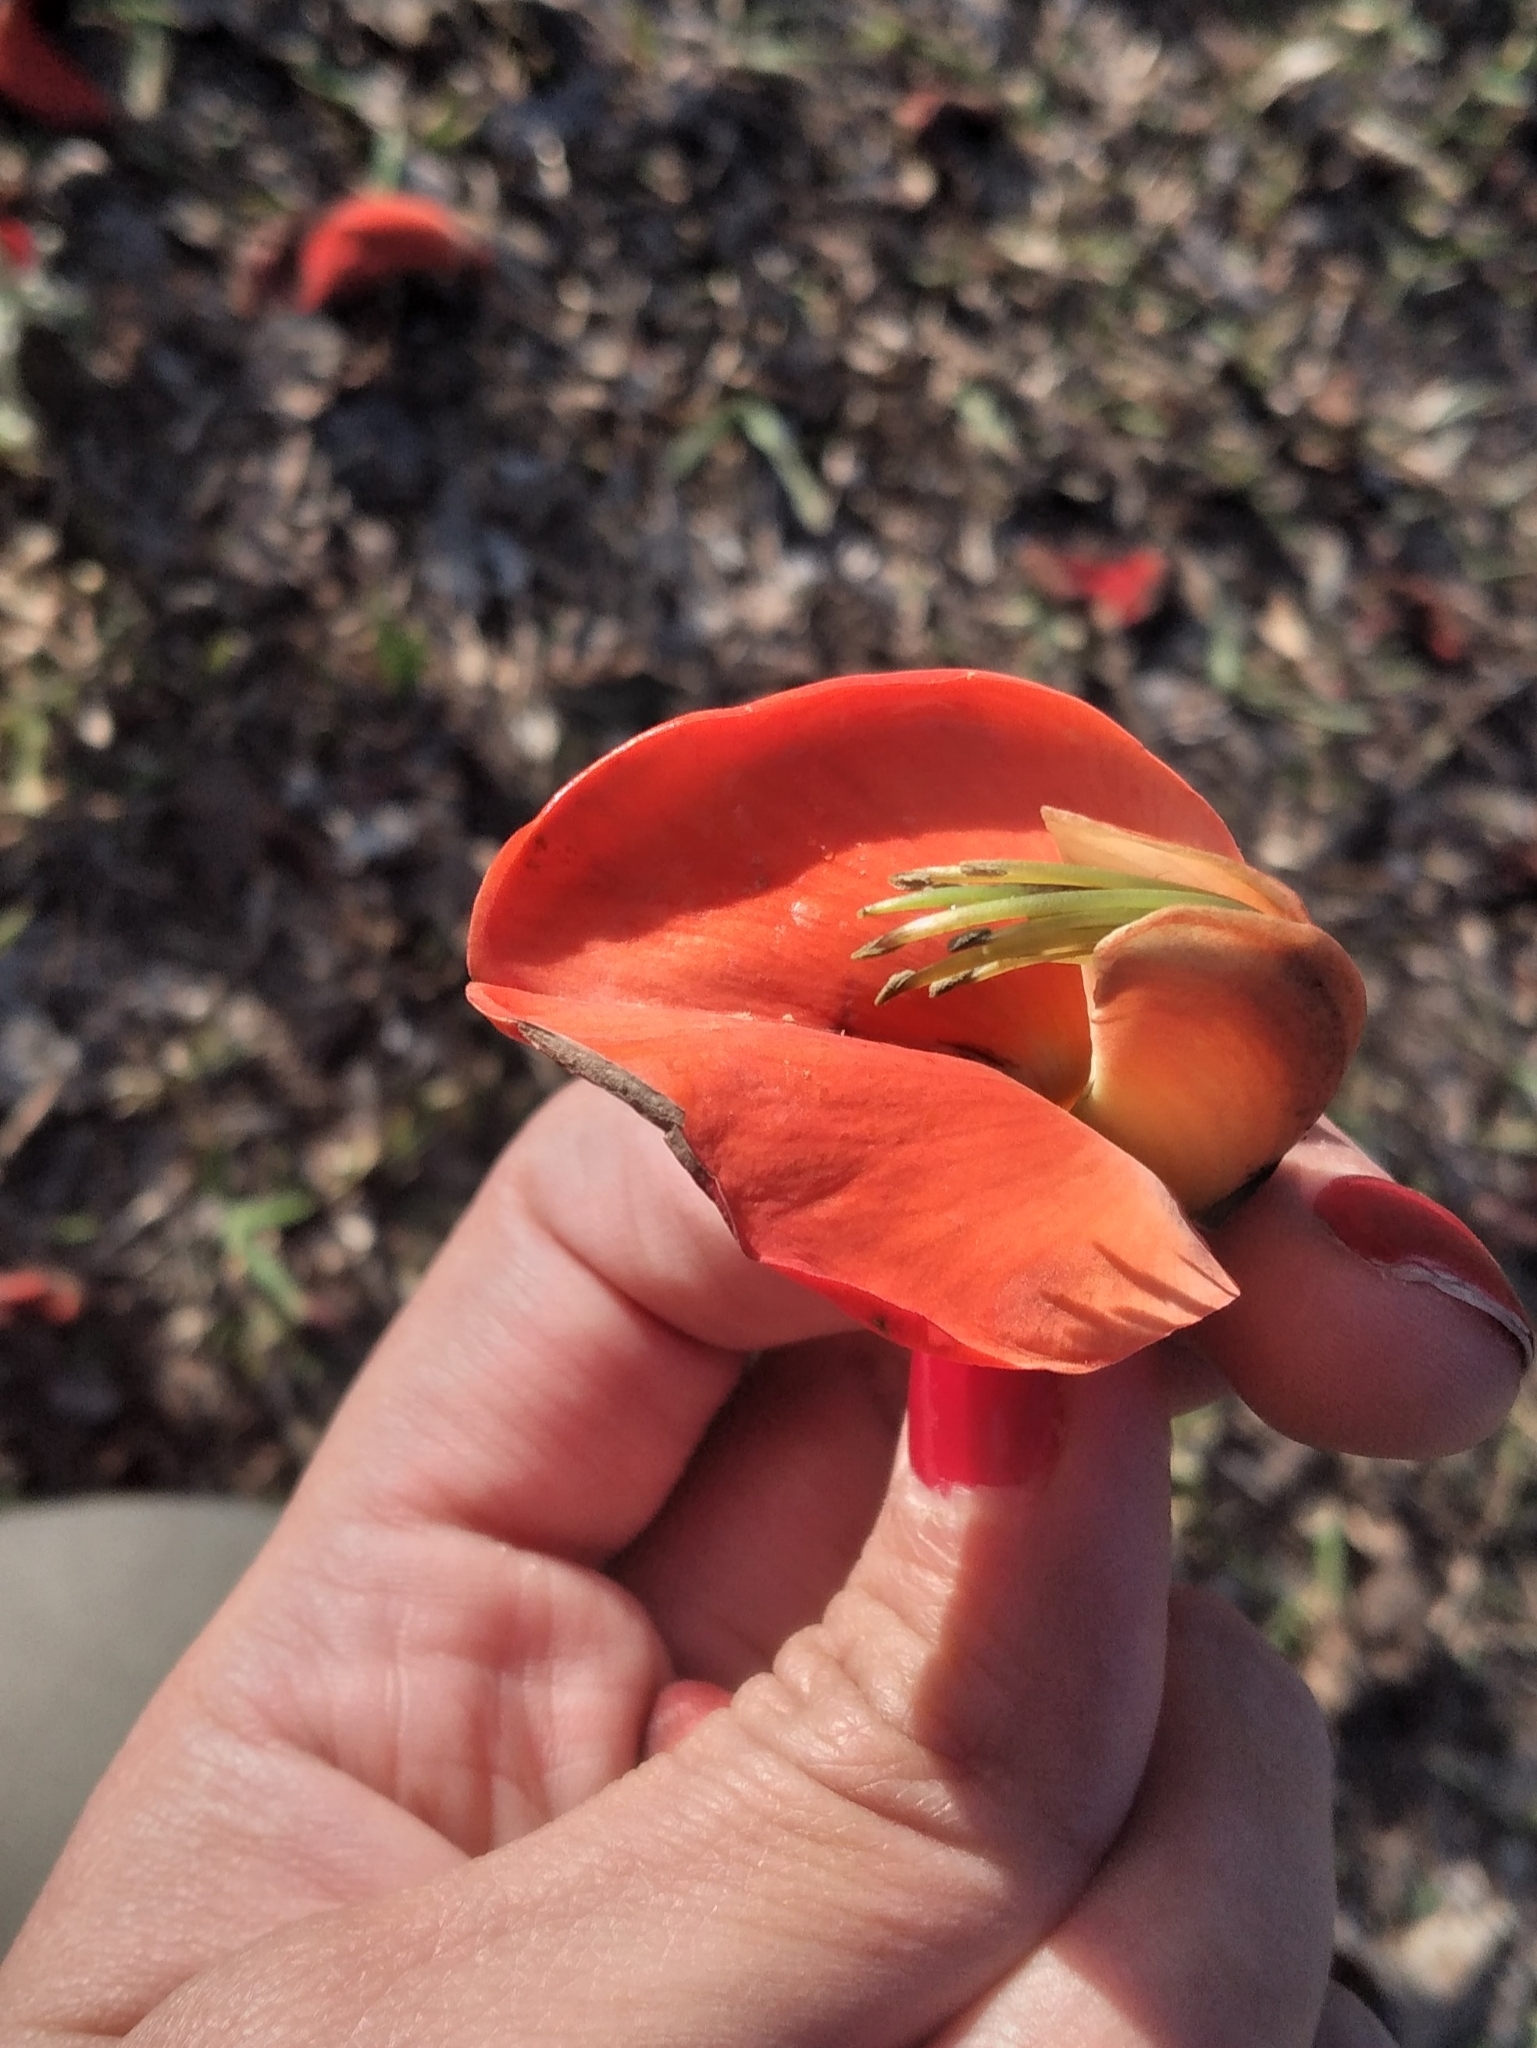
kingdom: Plantae
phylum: Tracheophyta
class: Magnoliopsida
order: Fabales
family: Fabaceae
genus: Erythrina
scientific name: Erythrina falcata
